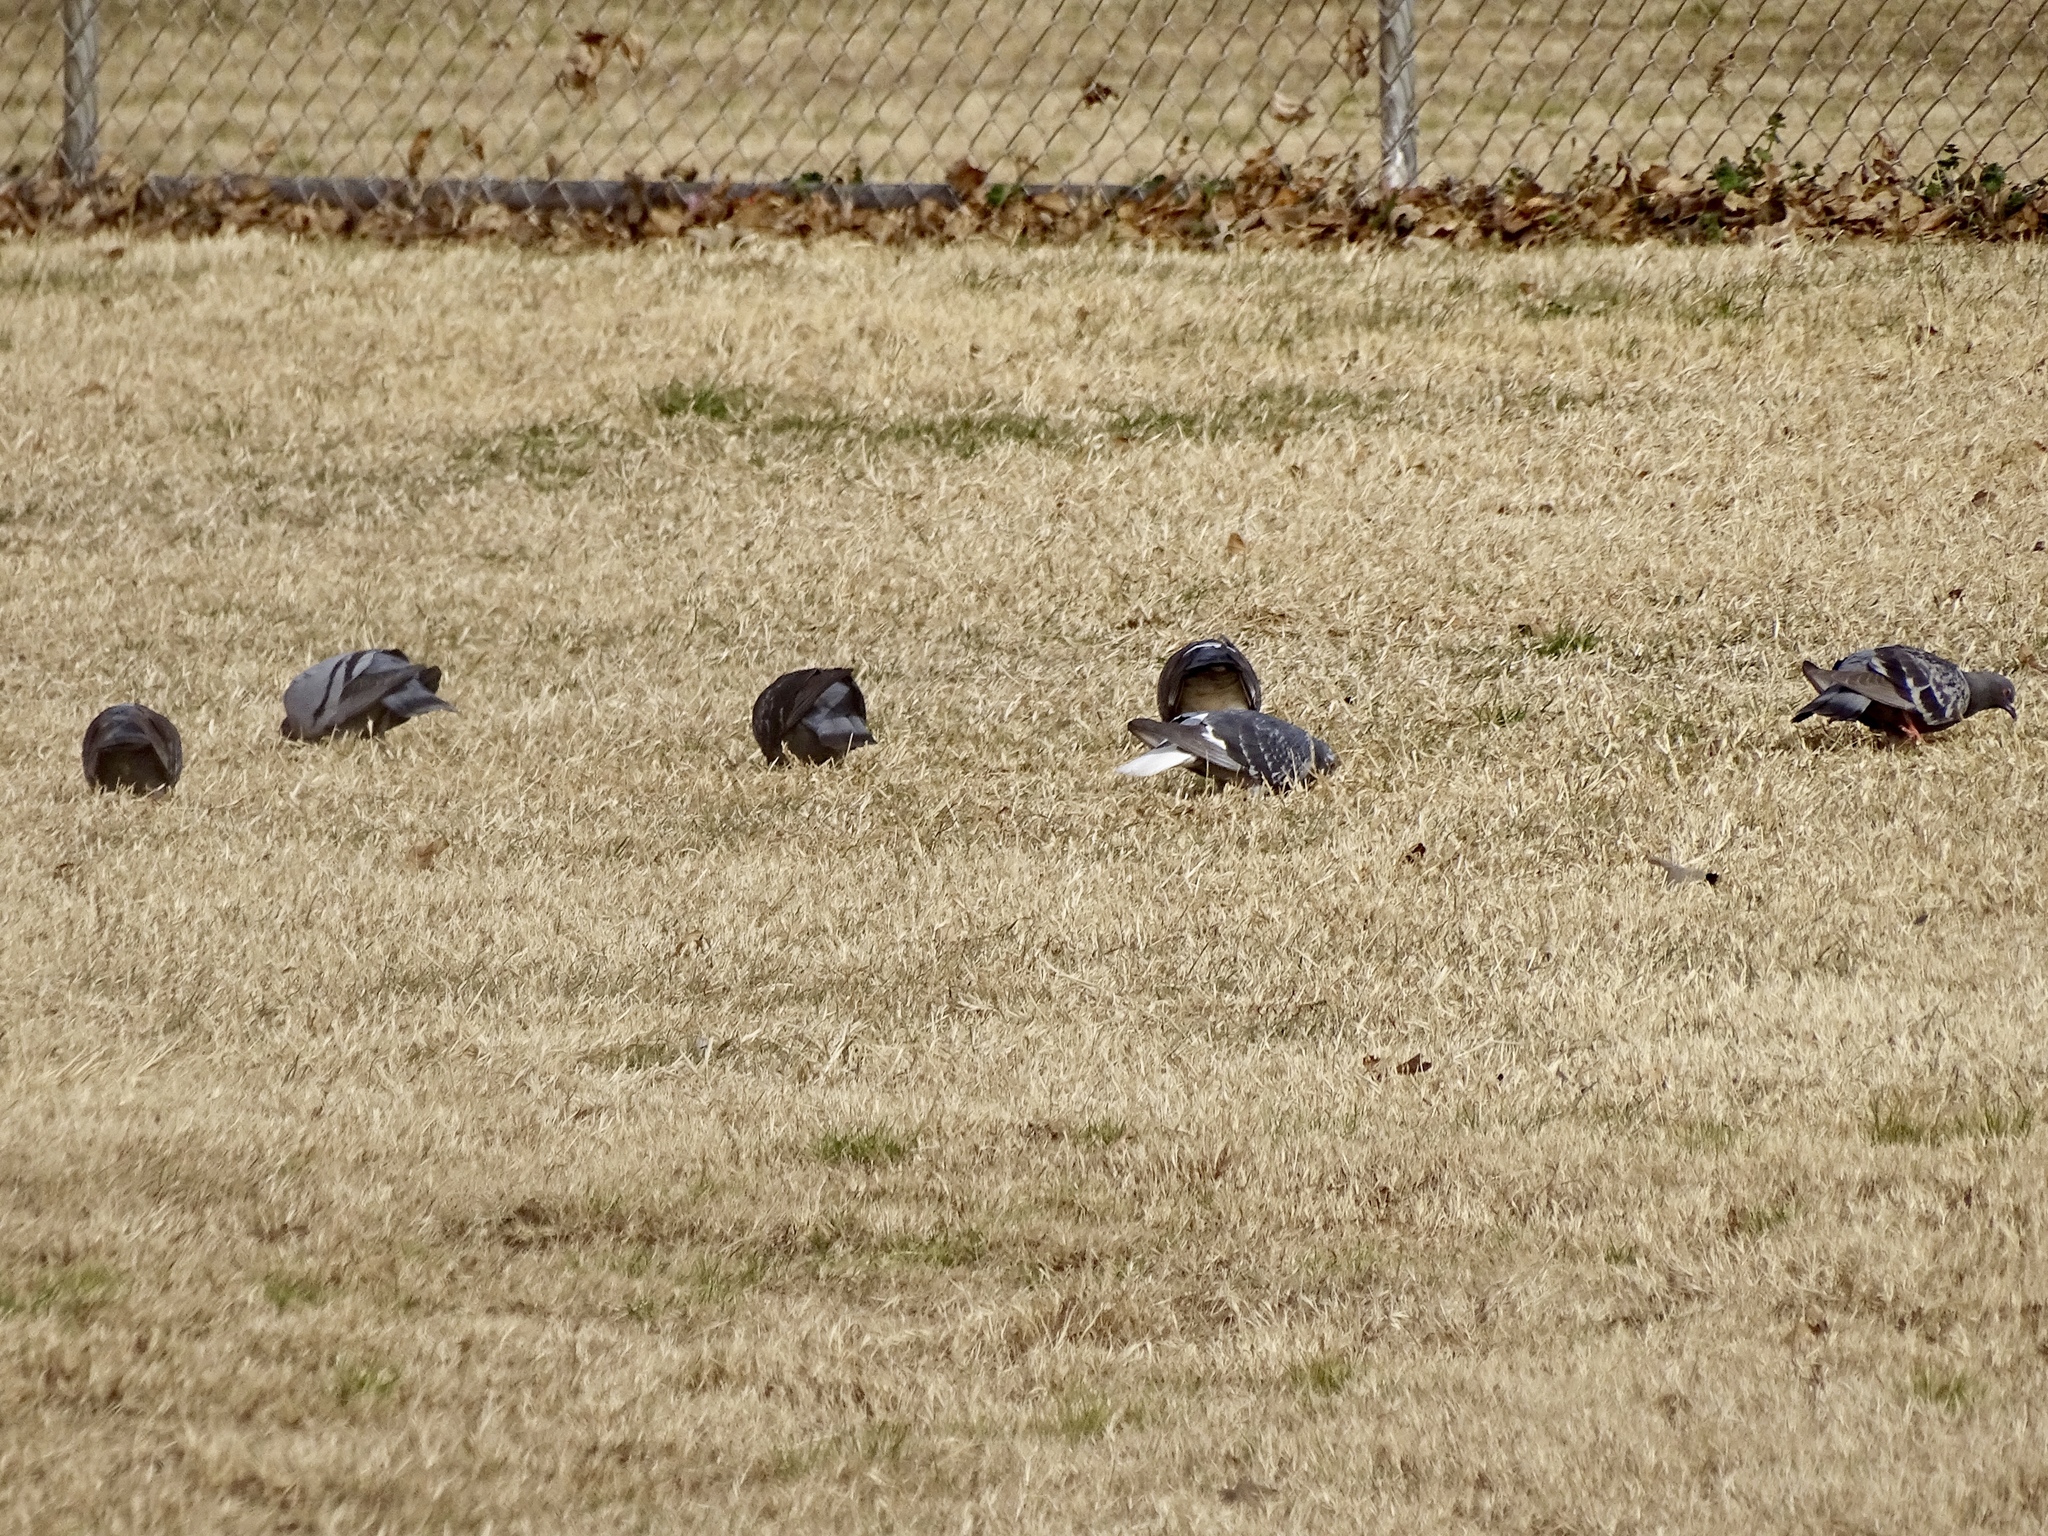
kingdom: Animalia
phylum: Chordata
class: Aves
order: Columbiformes
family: Columbidae
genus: Columba
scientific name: Columba livia
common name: Rock pigeon
